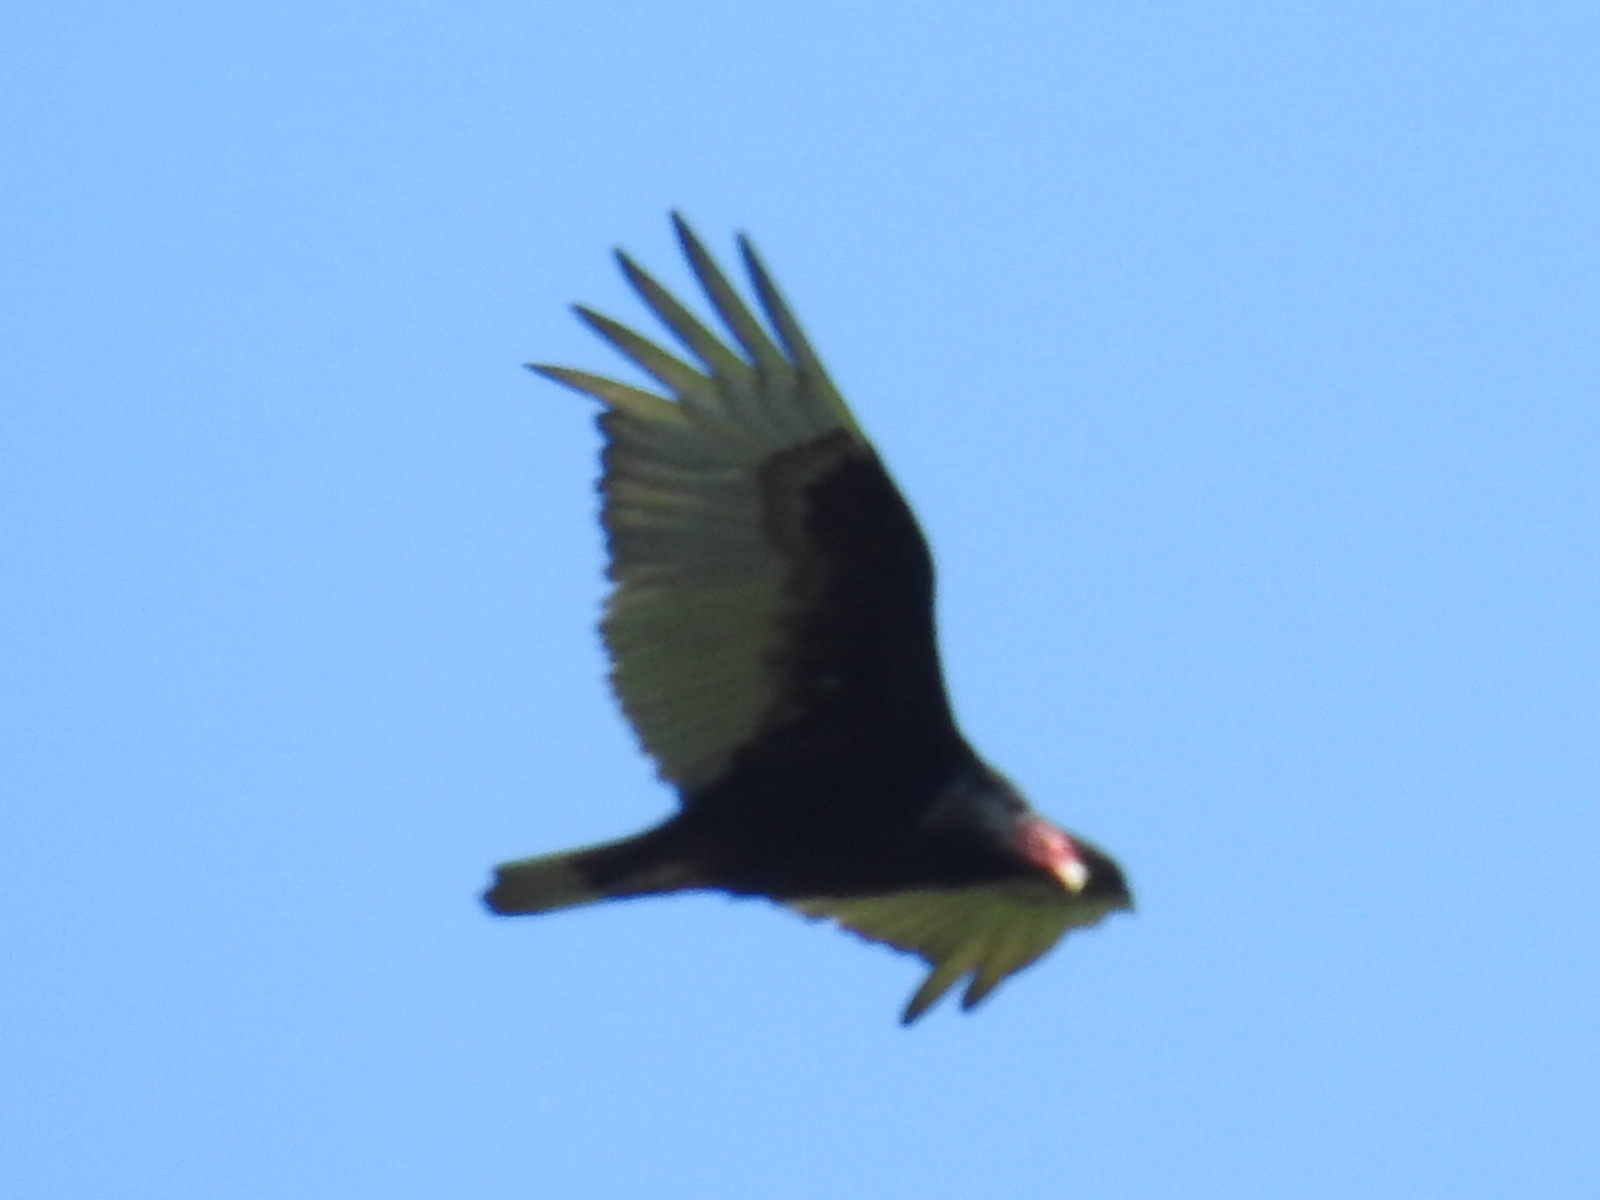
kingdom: Animalia
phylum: Chordata
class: Aves
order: Accipitriformes
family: Cathartidae
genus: Cathartes
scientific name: Cathartes aura
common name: Turkey vulture
